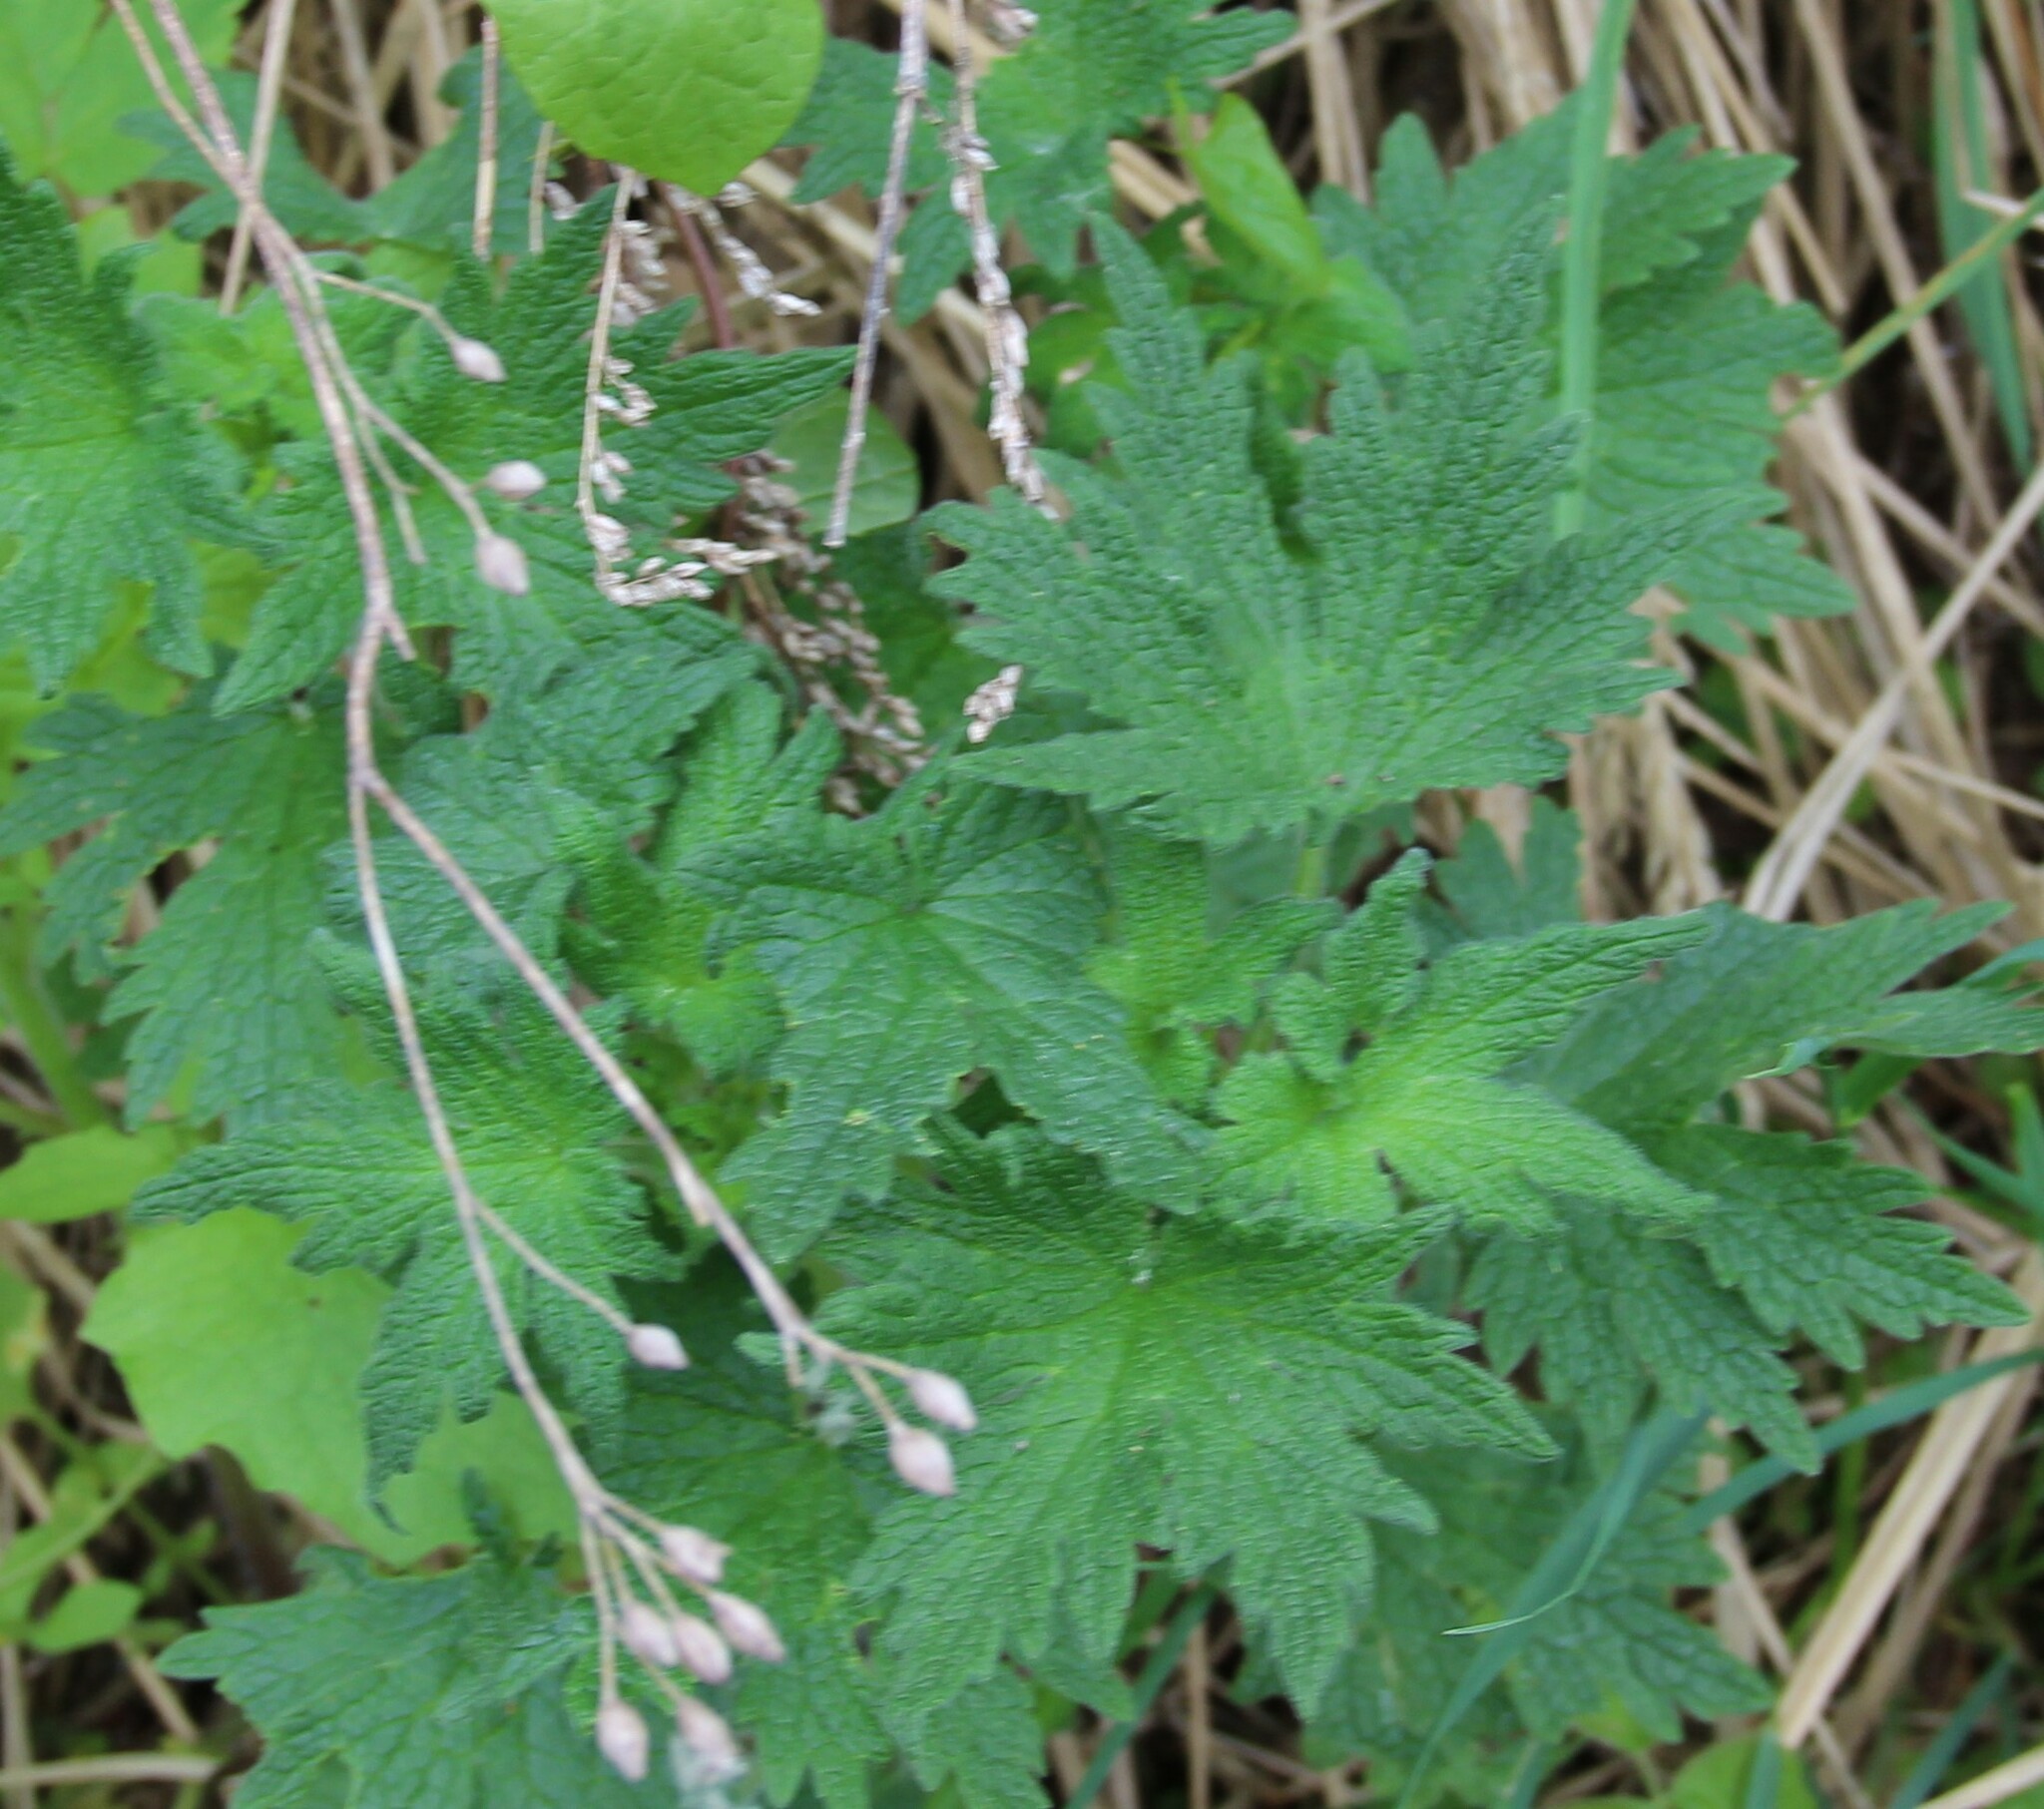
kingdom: Plantae
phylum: Tracheophyta
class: Magnoliopsida
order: Lamiales
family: Lamiaceae
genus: Leonurus
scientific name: Leonurus quinquelobatus
